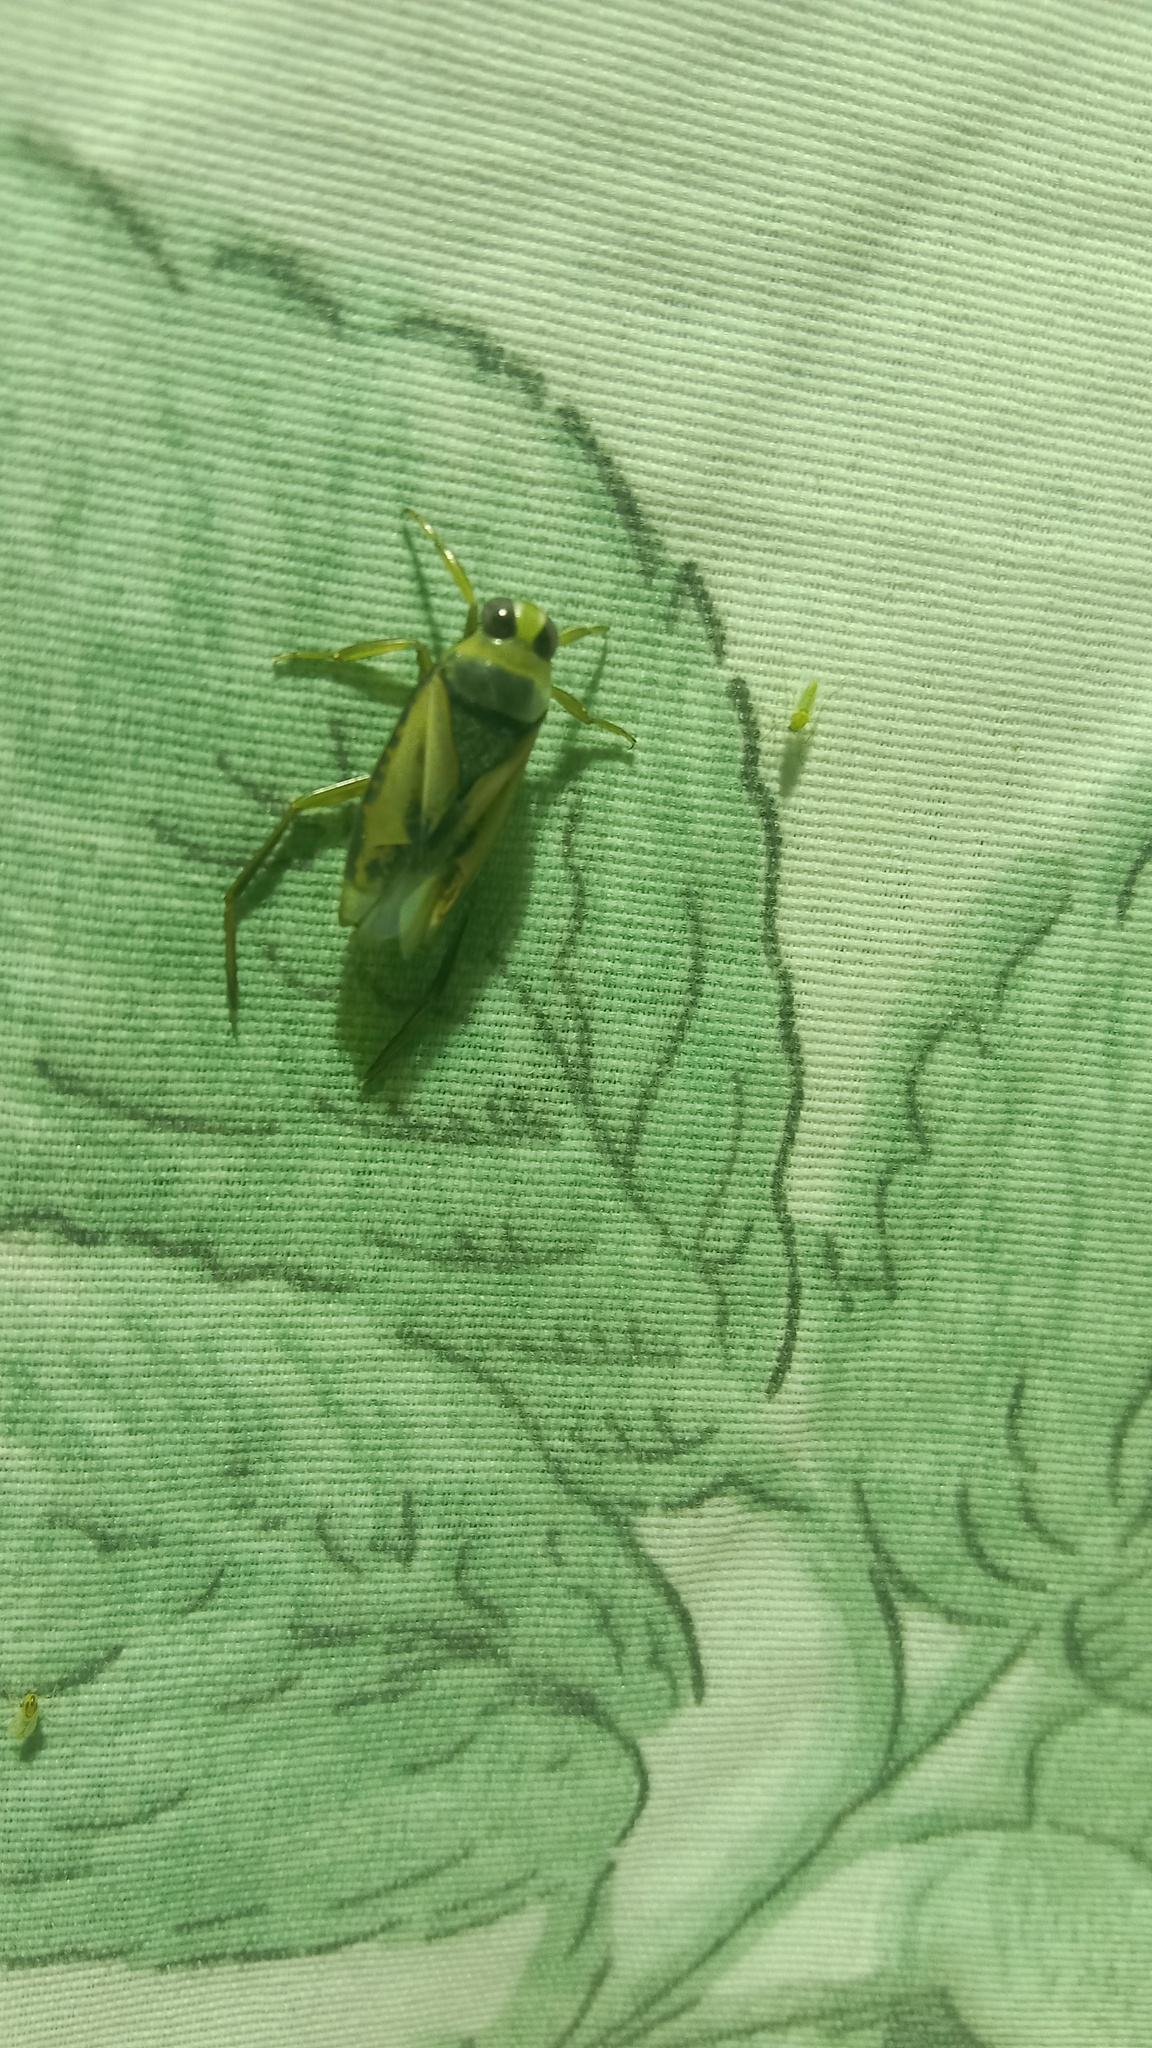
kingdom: Animalia
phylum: Arthropoda
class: Insecta
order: Hemiptera
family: Notonectidae
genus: Notonecta
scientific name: Notonecta glauca
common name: Common water-boatman
